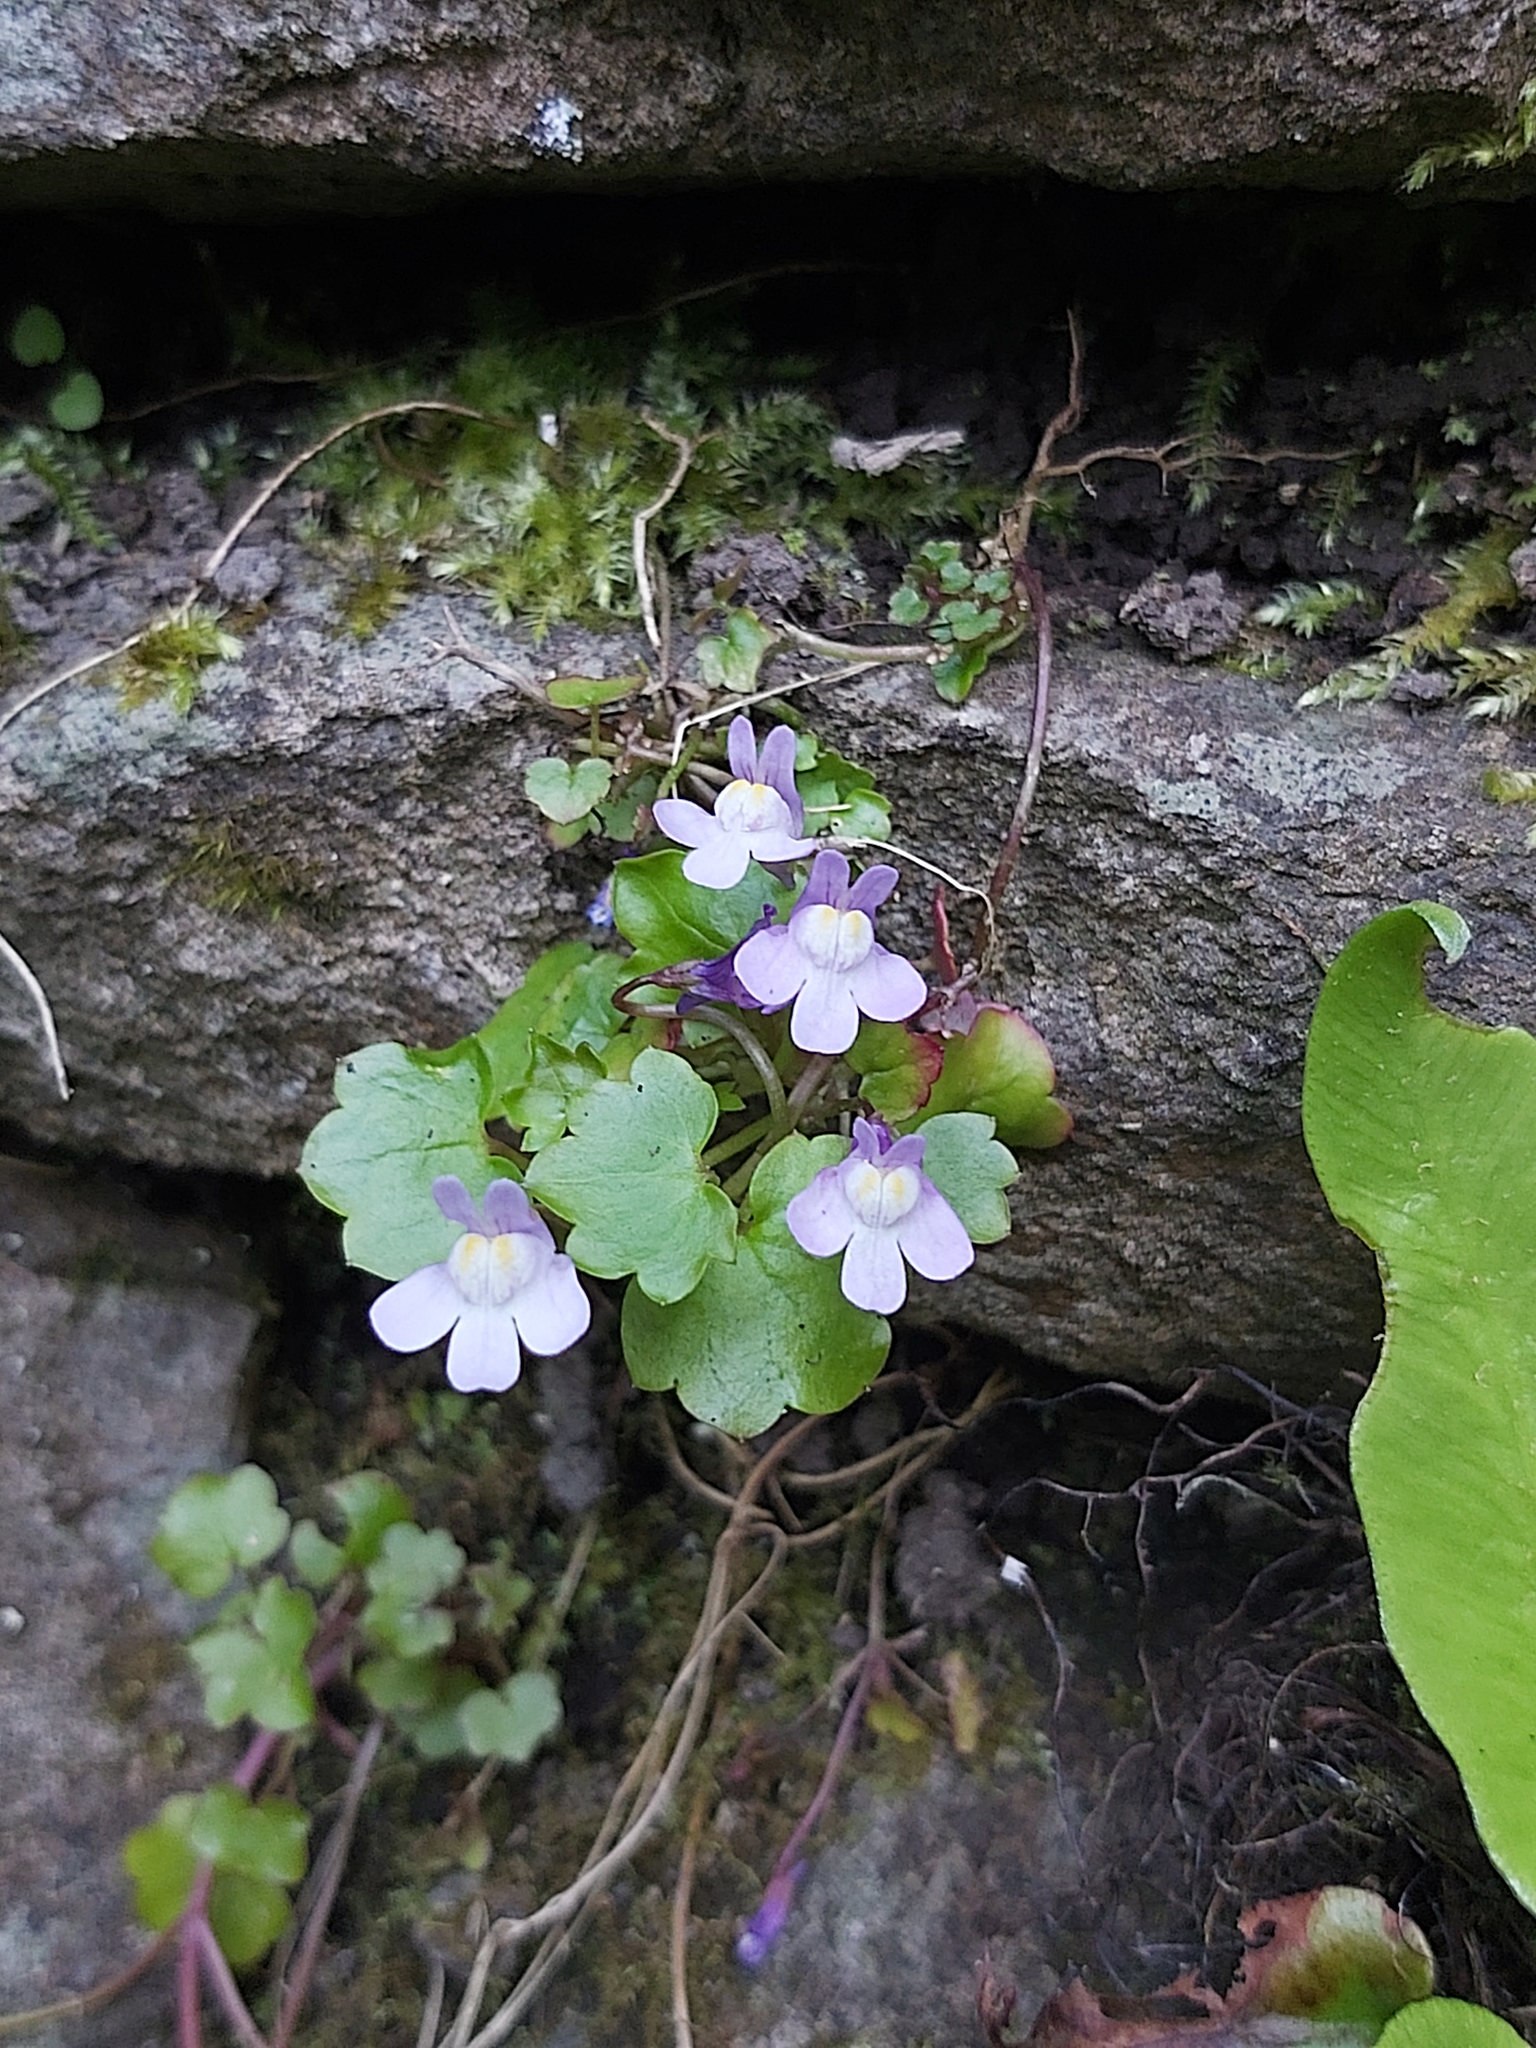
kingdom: Plantae
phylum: Tracheophyta
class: Magnoliopsida
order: Lamiales
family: Plantaginaceae
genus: Cymbalaria
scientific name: Cymbalaria muralis
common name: Ivy-leaved toadflax
